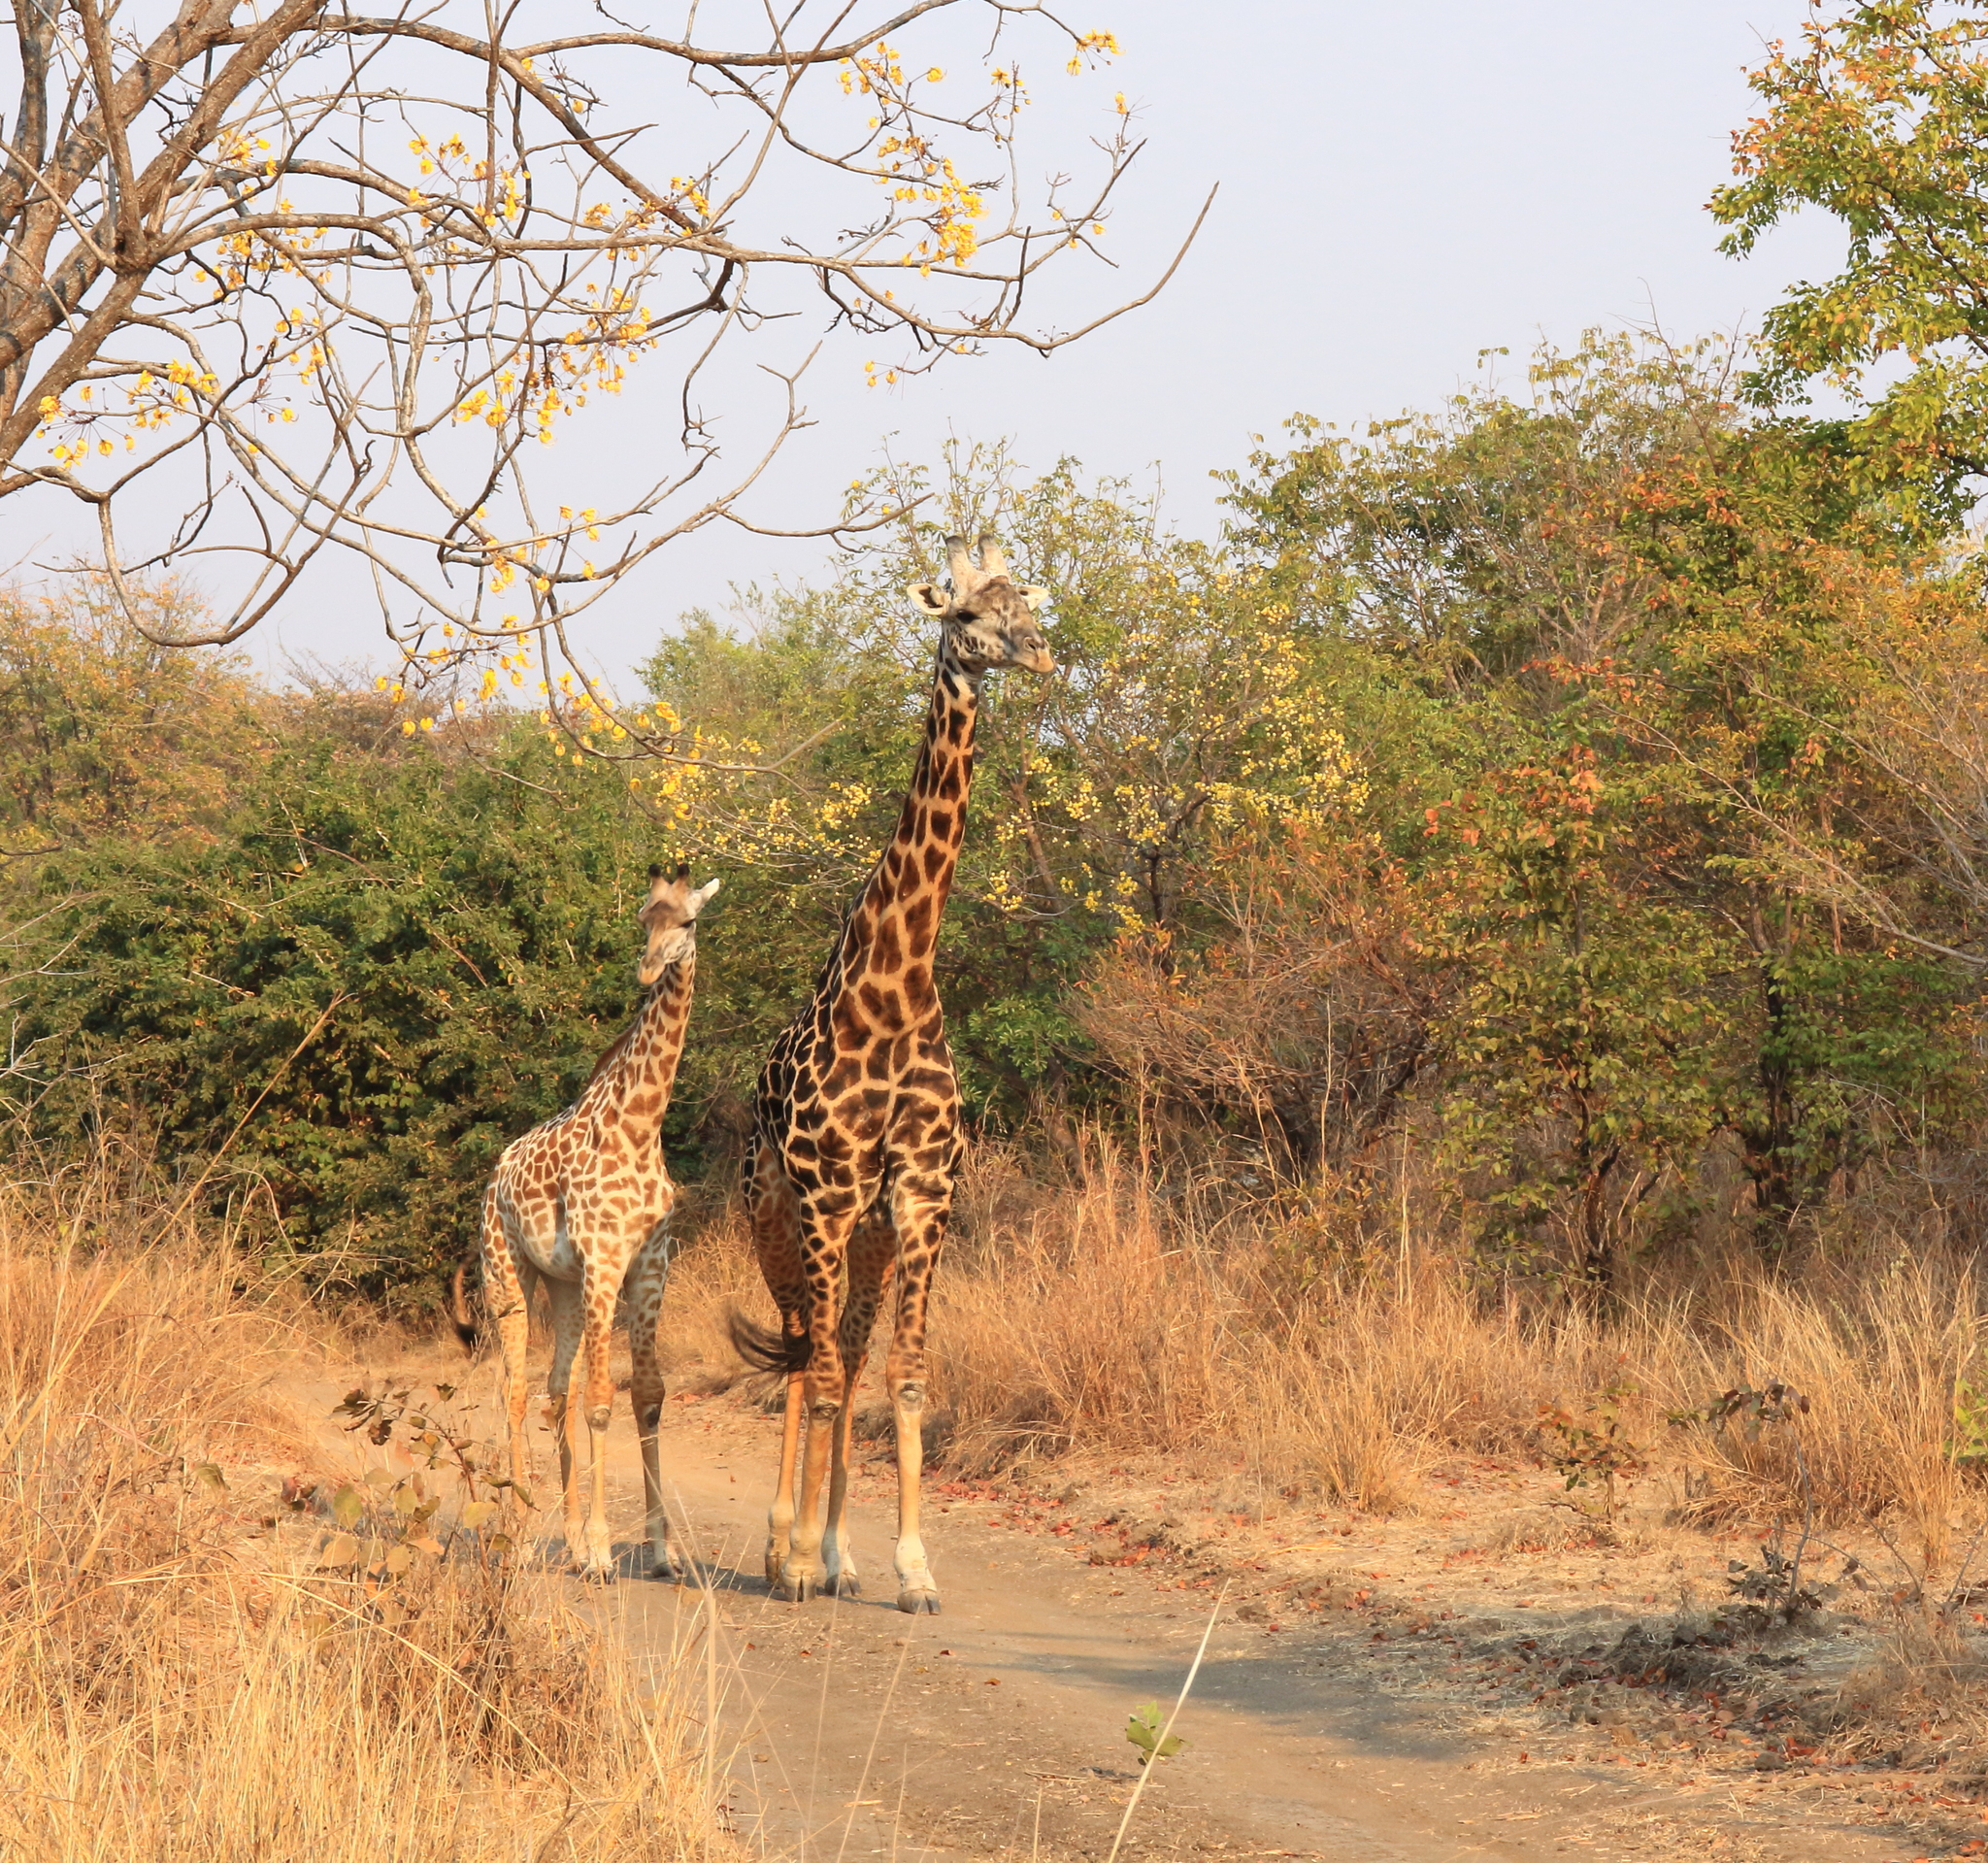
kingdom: Animalia
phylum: Chordata
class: Mammalia
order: Artiodactyla
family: Giraffidae
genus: Giraffa
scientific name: Giraffa tippelskirchi
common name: Masai giraffe
